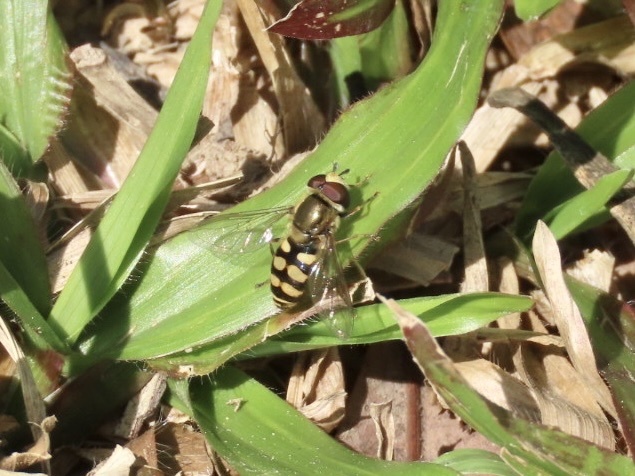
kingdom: Animalia
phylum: Arthropoda
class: Insecta
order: Diptera
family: Syrphidae
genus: Eupeodes
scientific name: Eupeodes corollae
